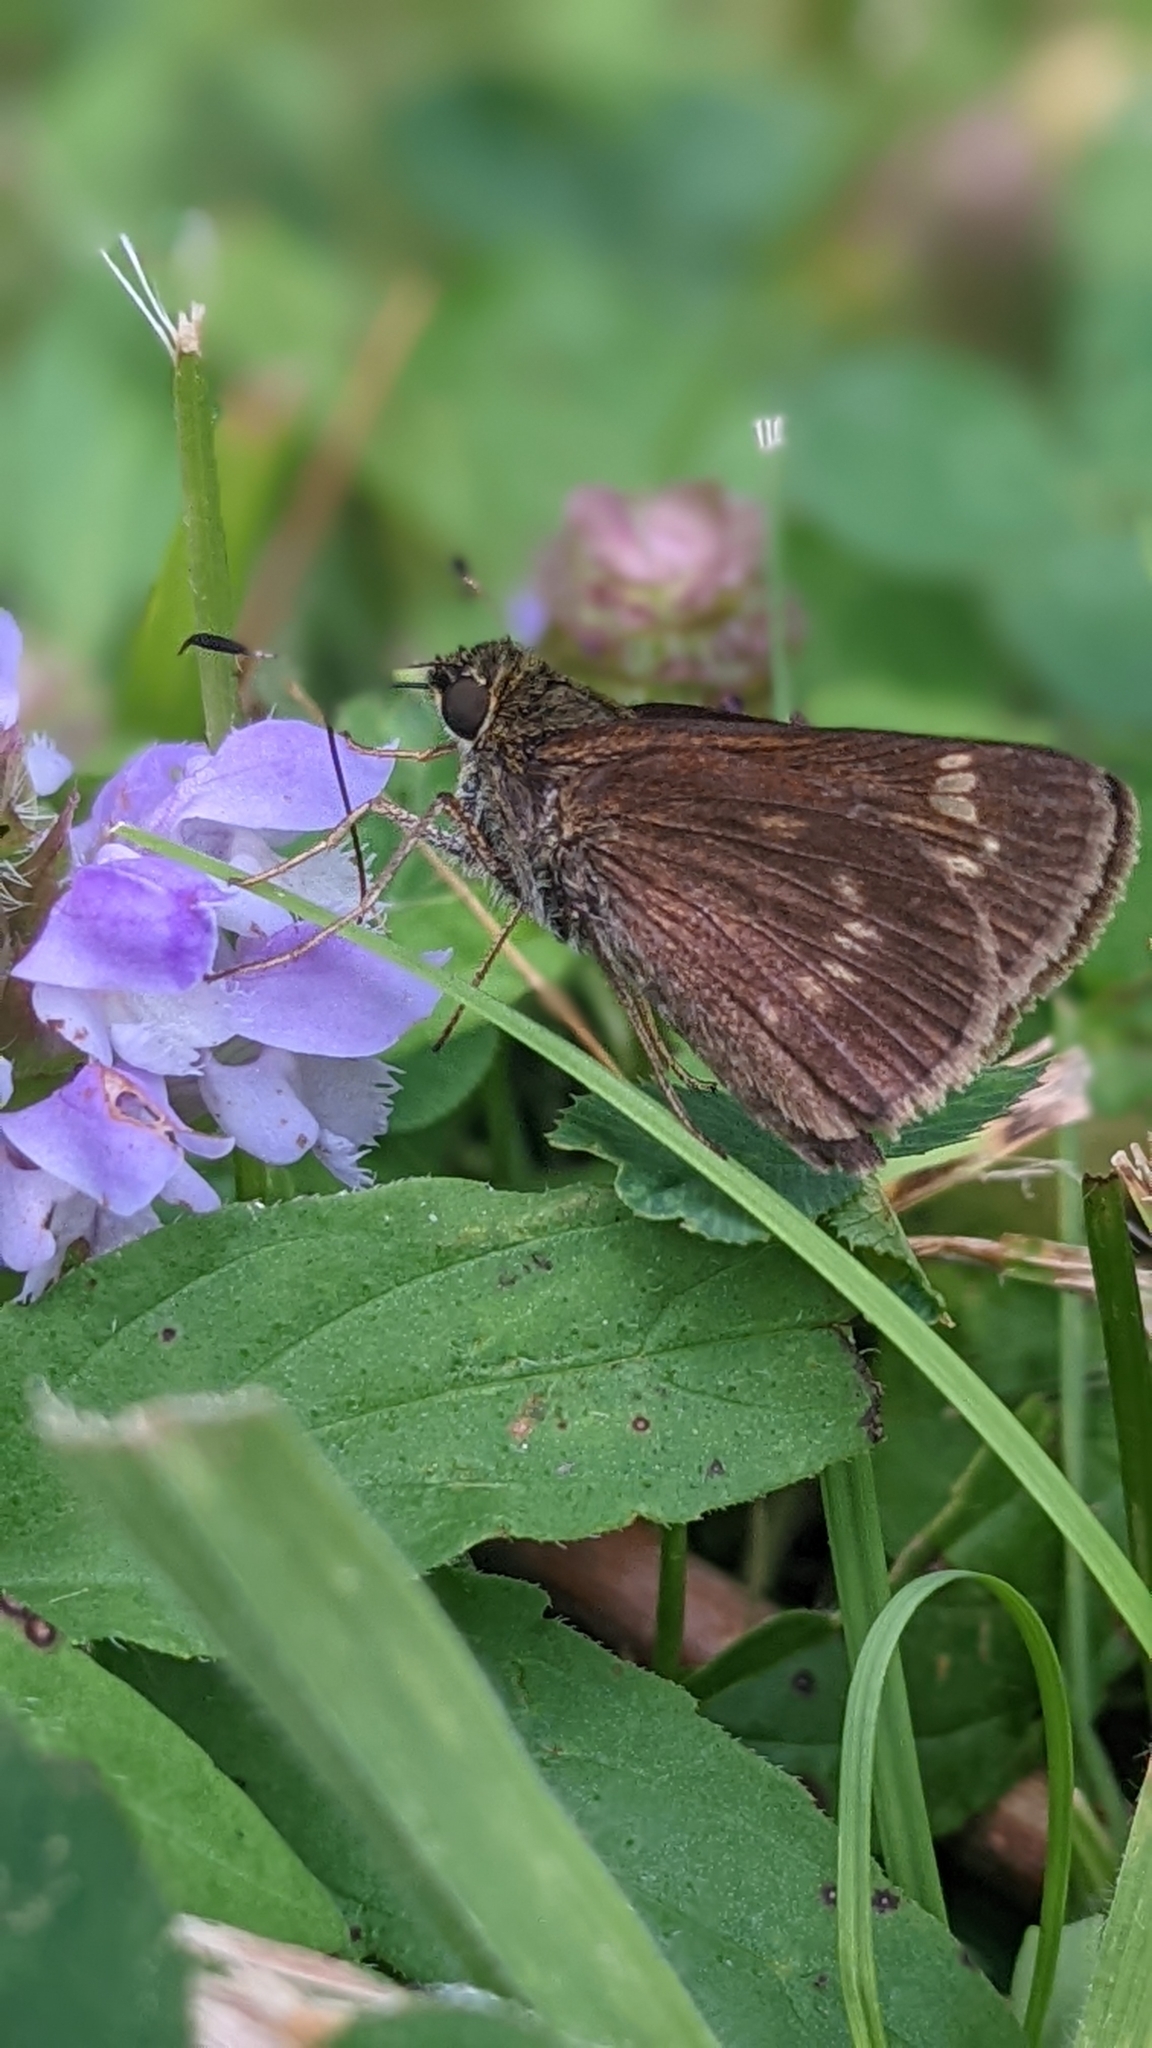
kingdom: Animalia
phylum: Arthropoda
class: Insecta
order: Lepidoptera
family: Hesperiidae
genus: Vernia
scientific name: Vernia verna
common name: Little glassywing
